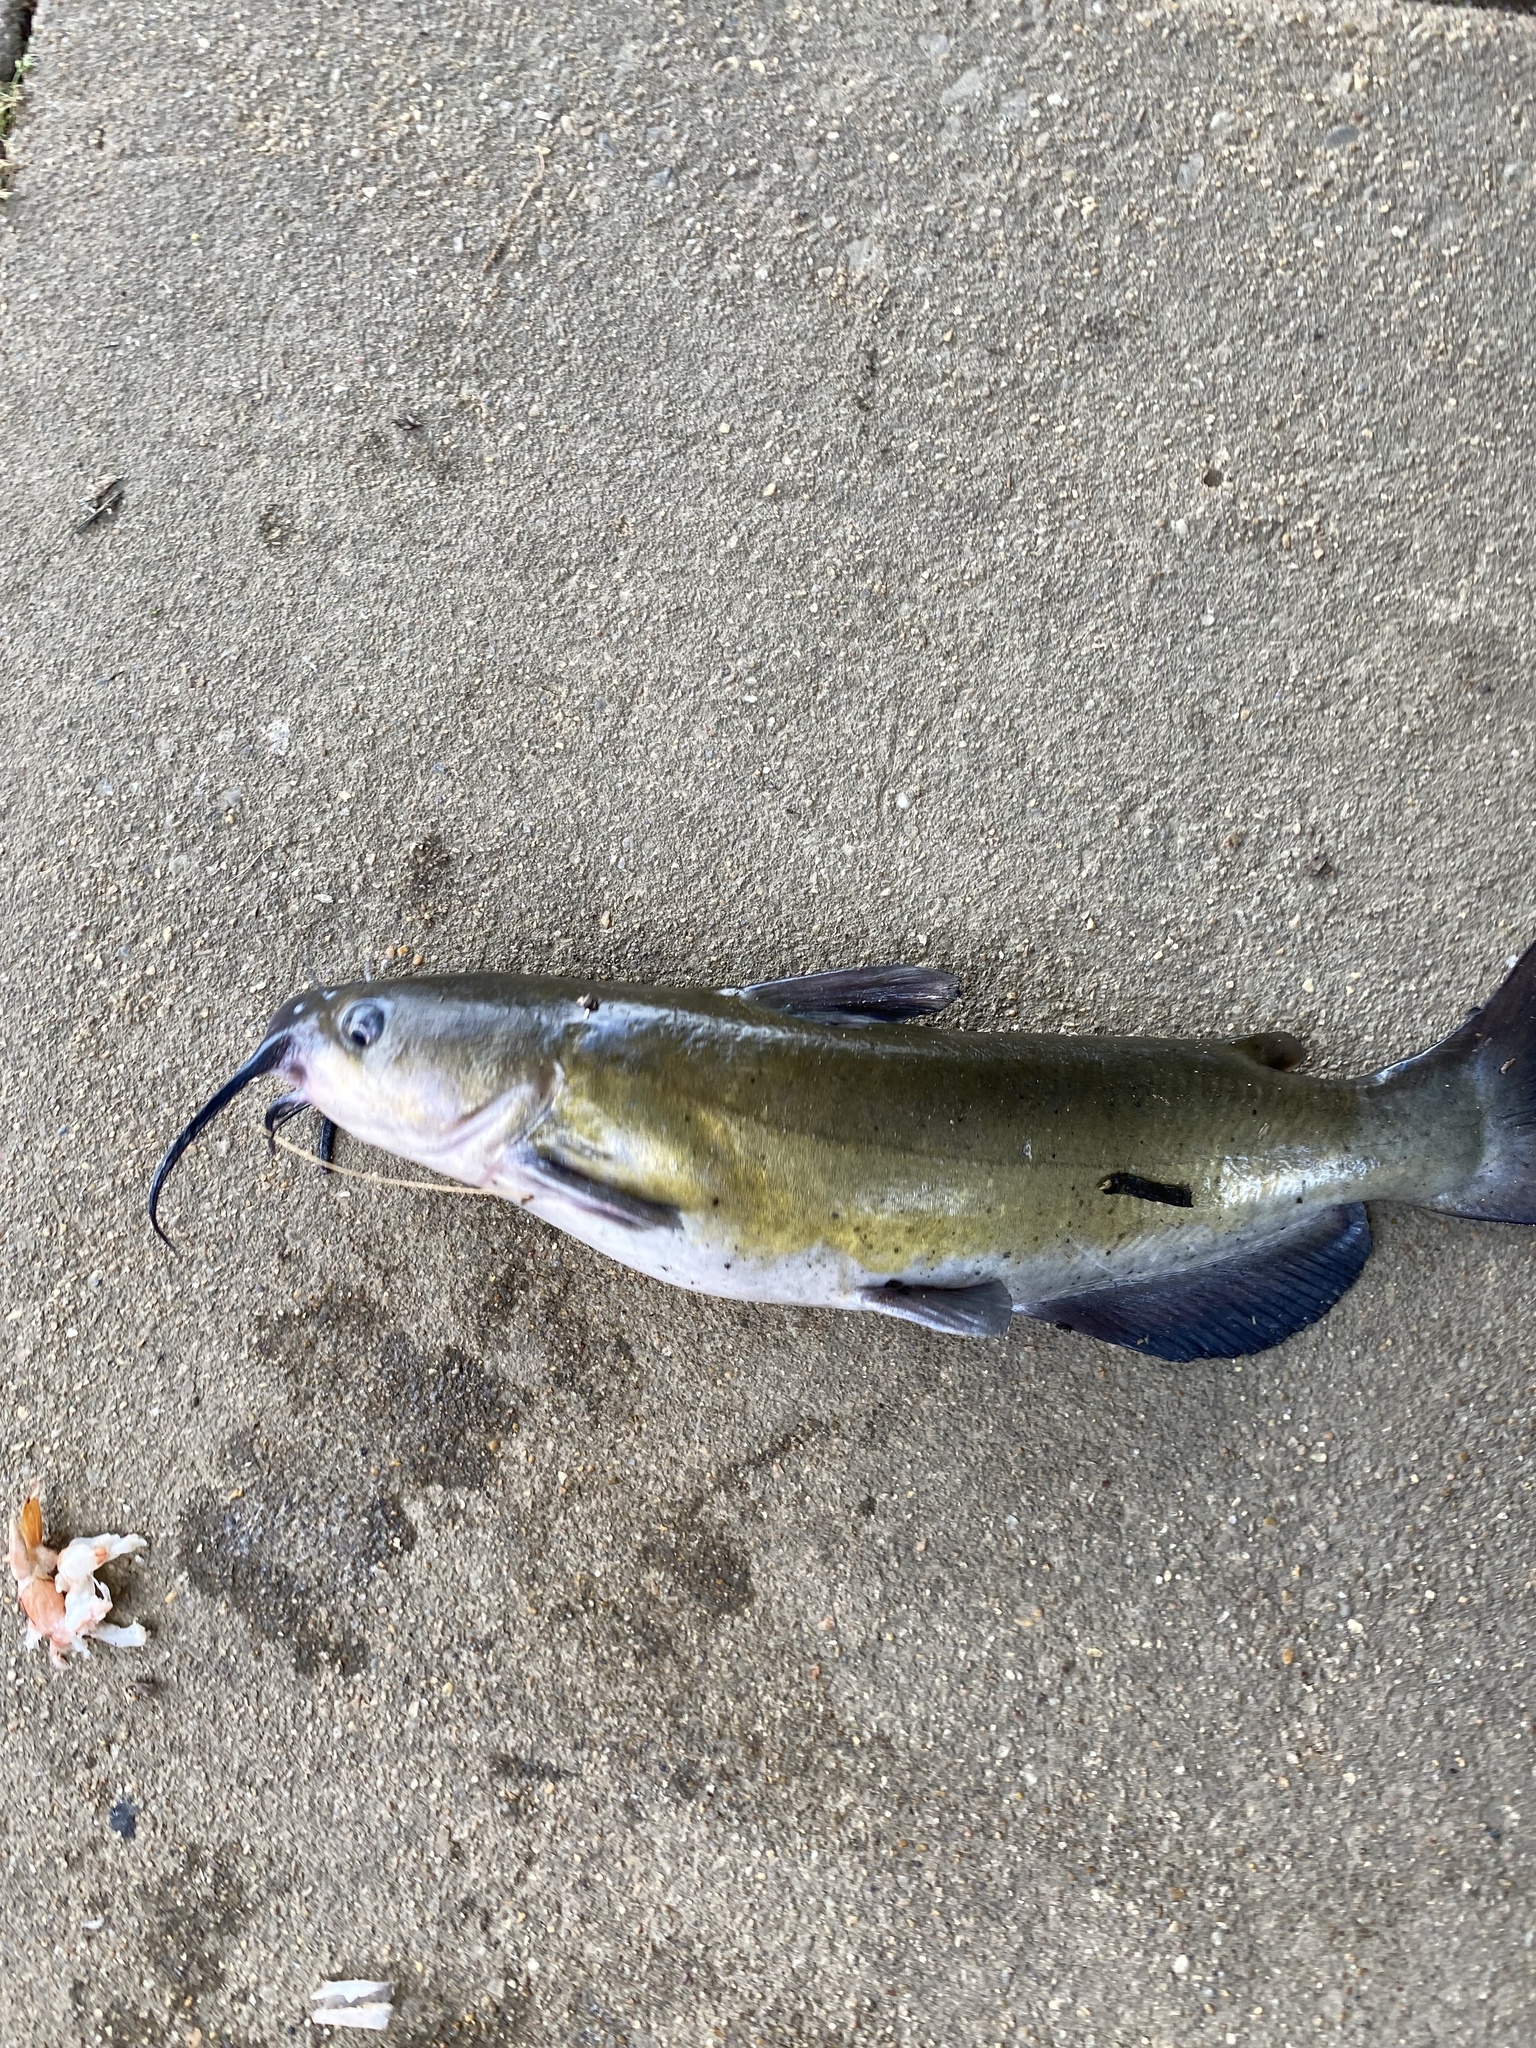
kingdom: Animalia
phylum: Chordata
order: Siluriformes
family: Ictaluridae
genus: Ictalurus
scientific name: Ictalurus punctatus
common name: Channel catfish
